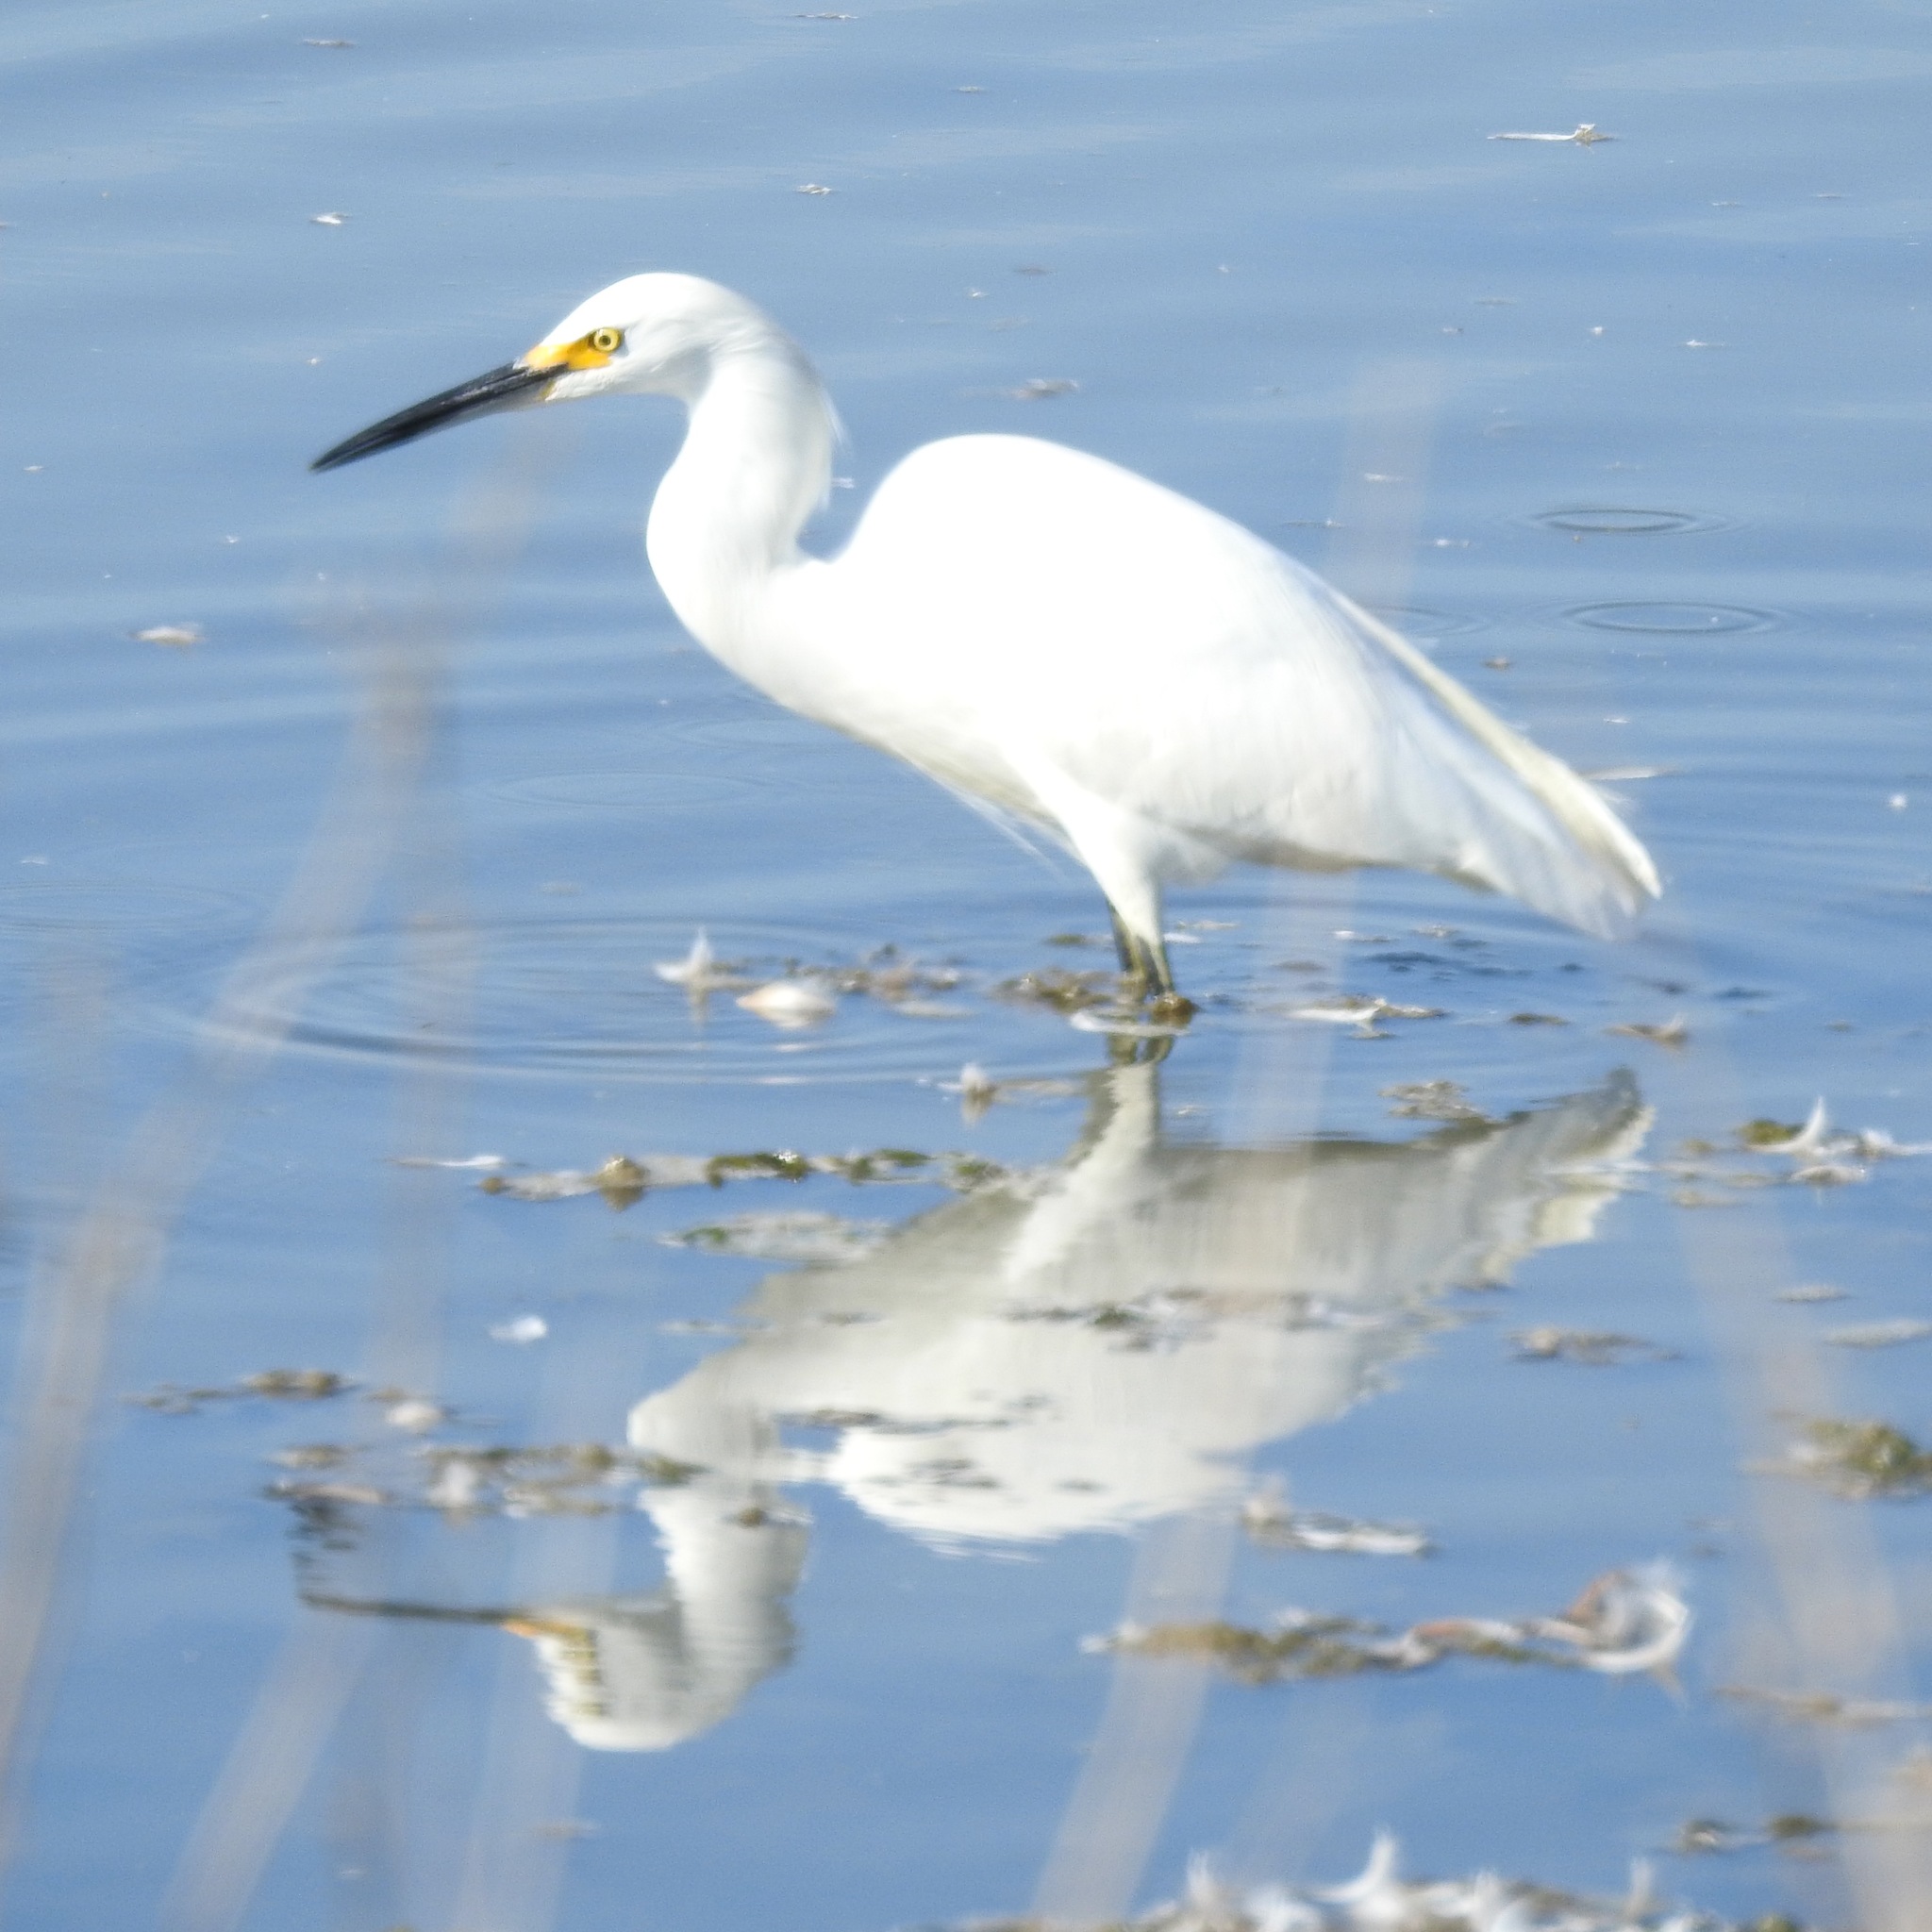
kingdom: Animalia
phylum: Chordata
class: Aves
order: Pelecaniformes
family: Ardeidae
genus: Egretta
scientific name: Egretta thula
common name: Snowy egret
